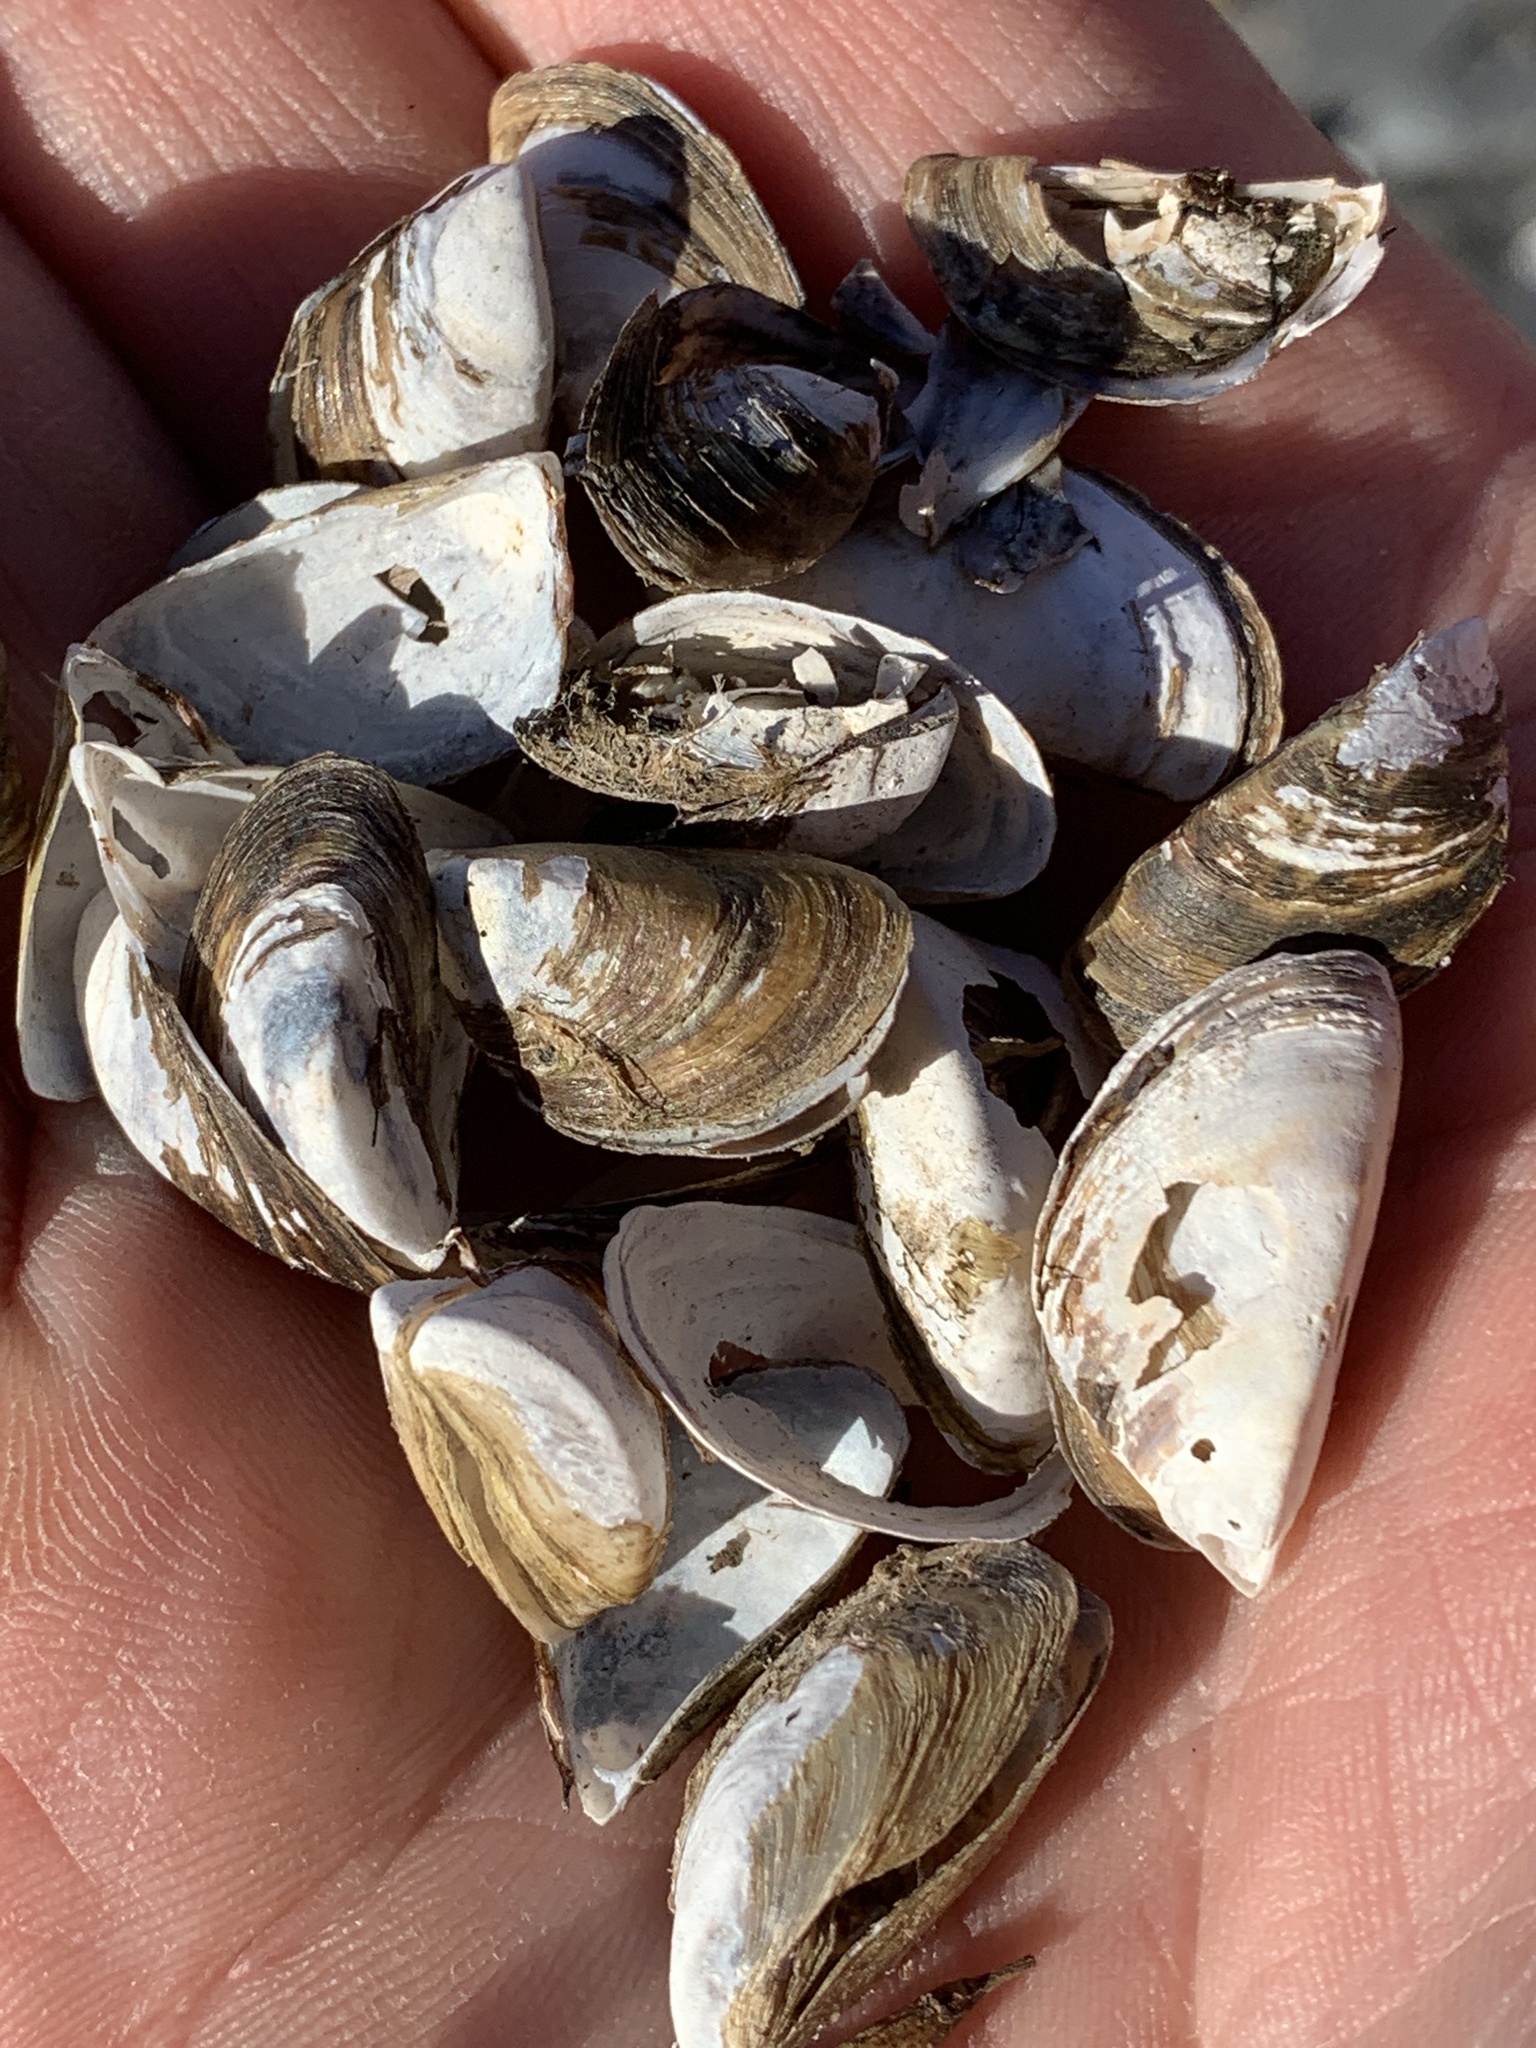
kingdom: Animalia
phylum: Mollusca
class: Bivalvia
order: Myida
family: Dreissenidae
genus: Dreissena
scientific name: Dreissena polymorpha
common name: Zebra mussel
